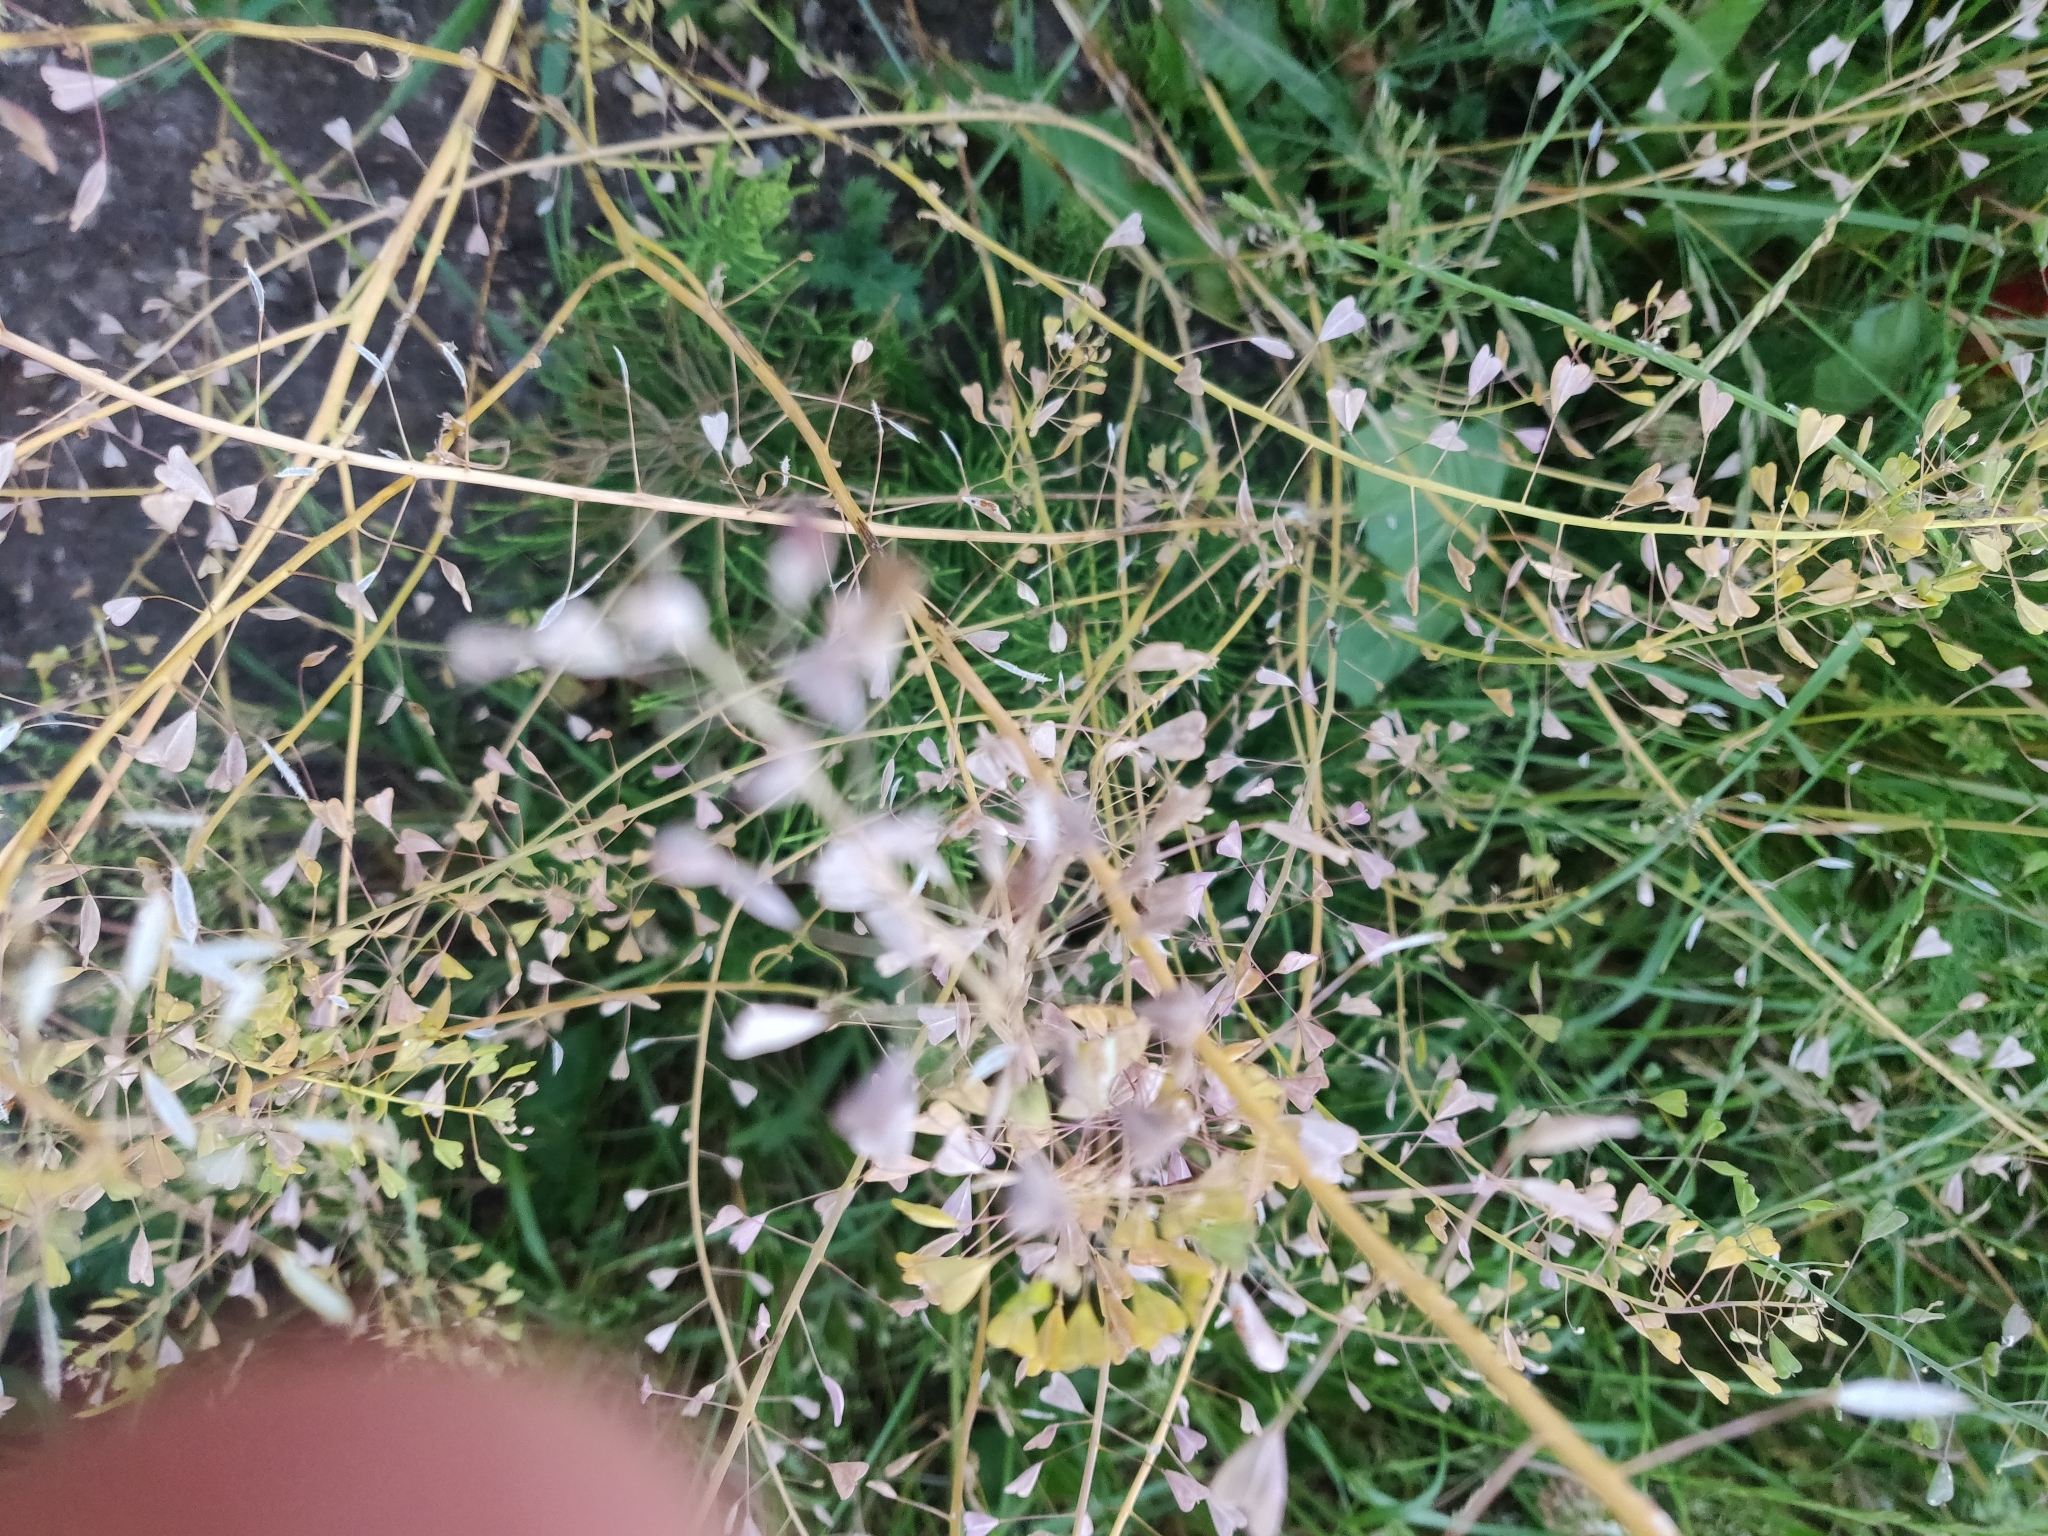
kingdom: Plantae
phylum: Tracheophyta
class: Magnoliopsida
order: Brassicales
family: Brassicaceae
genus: Capsella
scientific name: Capsella bursa-pastoris
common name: Shepherd's purse
